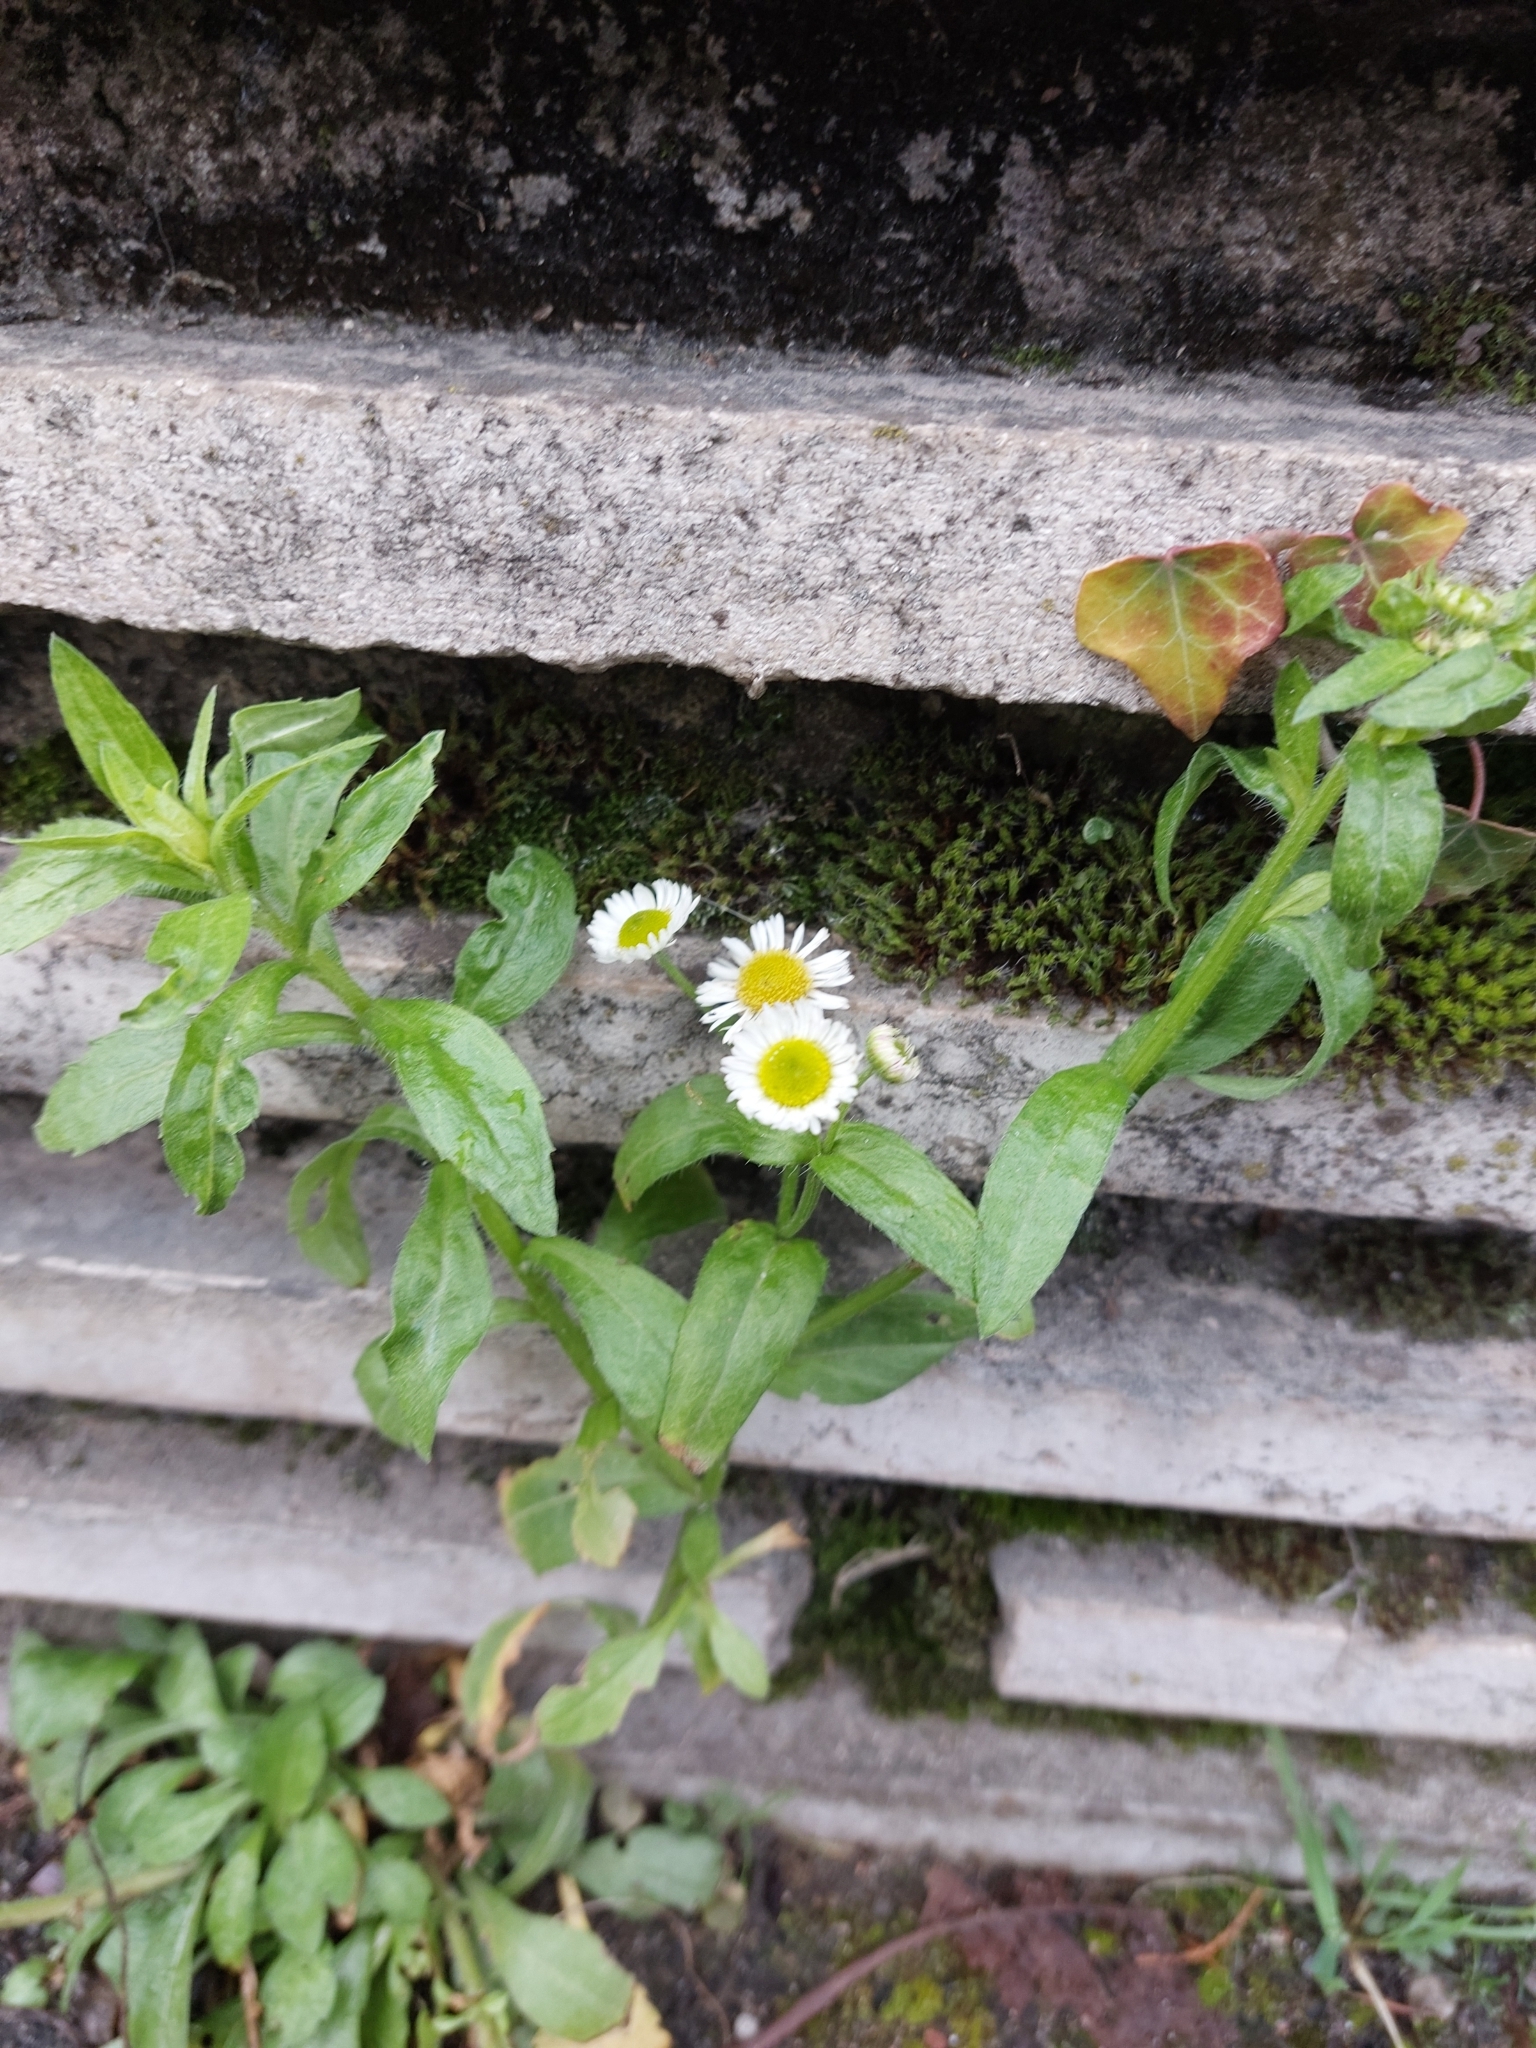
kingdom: Plantae
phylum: Tracheophyta
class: Magnoliopsida
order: Asterales
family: Asteraceae
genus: Erigeron
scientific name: Erigeron annuus
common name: Tall fleabane
